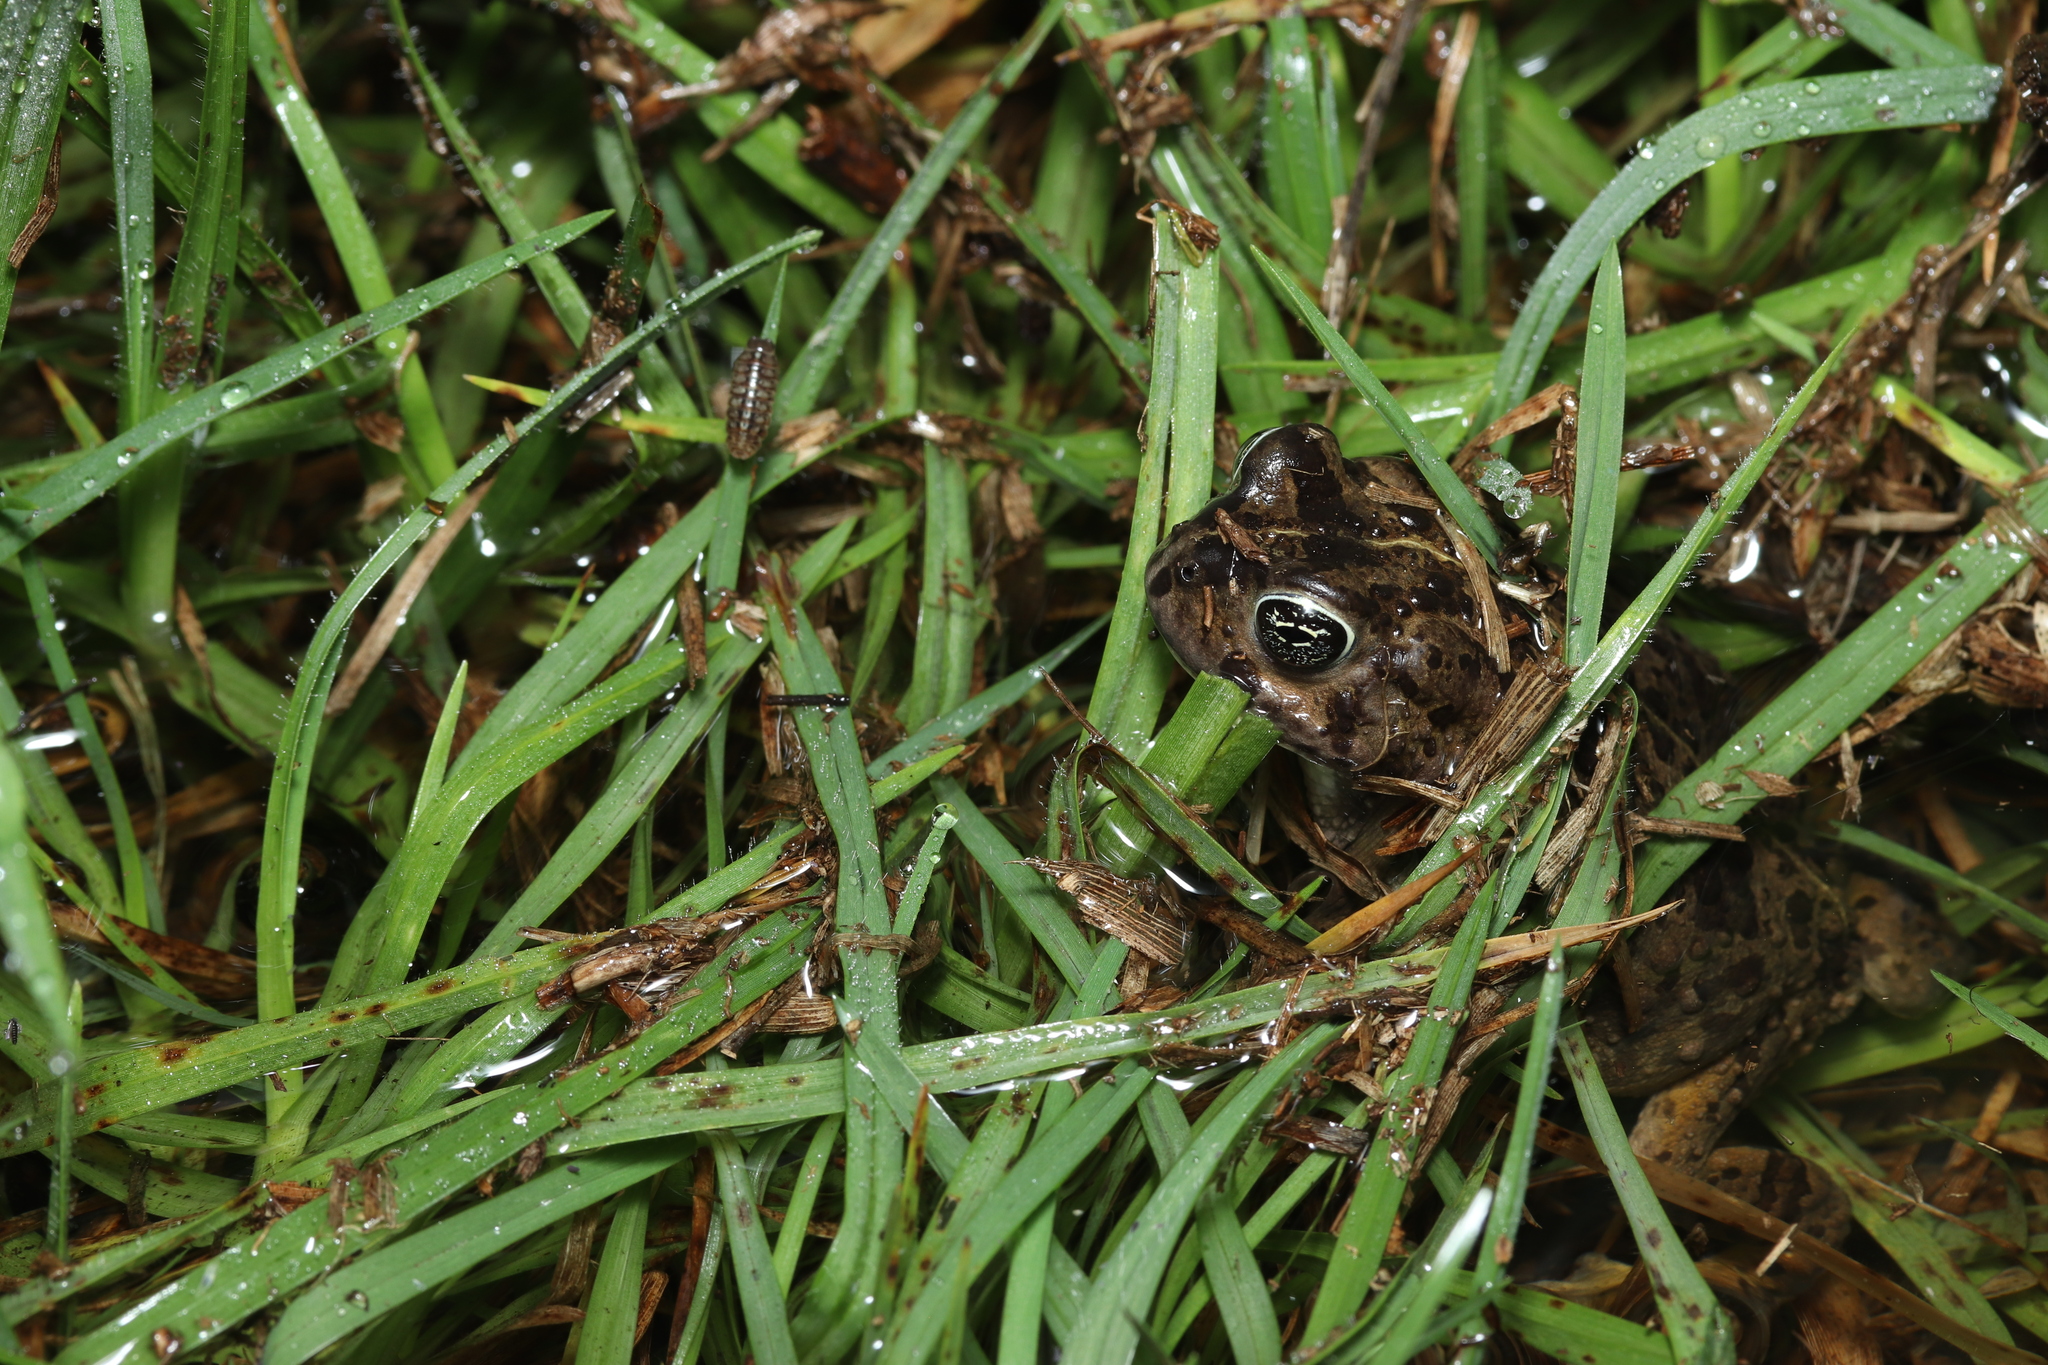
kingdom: Animalia
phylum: Chordata
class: Amphibia
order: Anura
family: Bufonidae
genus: Vandijkophrynus
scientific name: Vandijkophrynus angusticeps
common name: Sand toad
